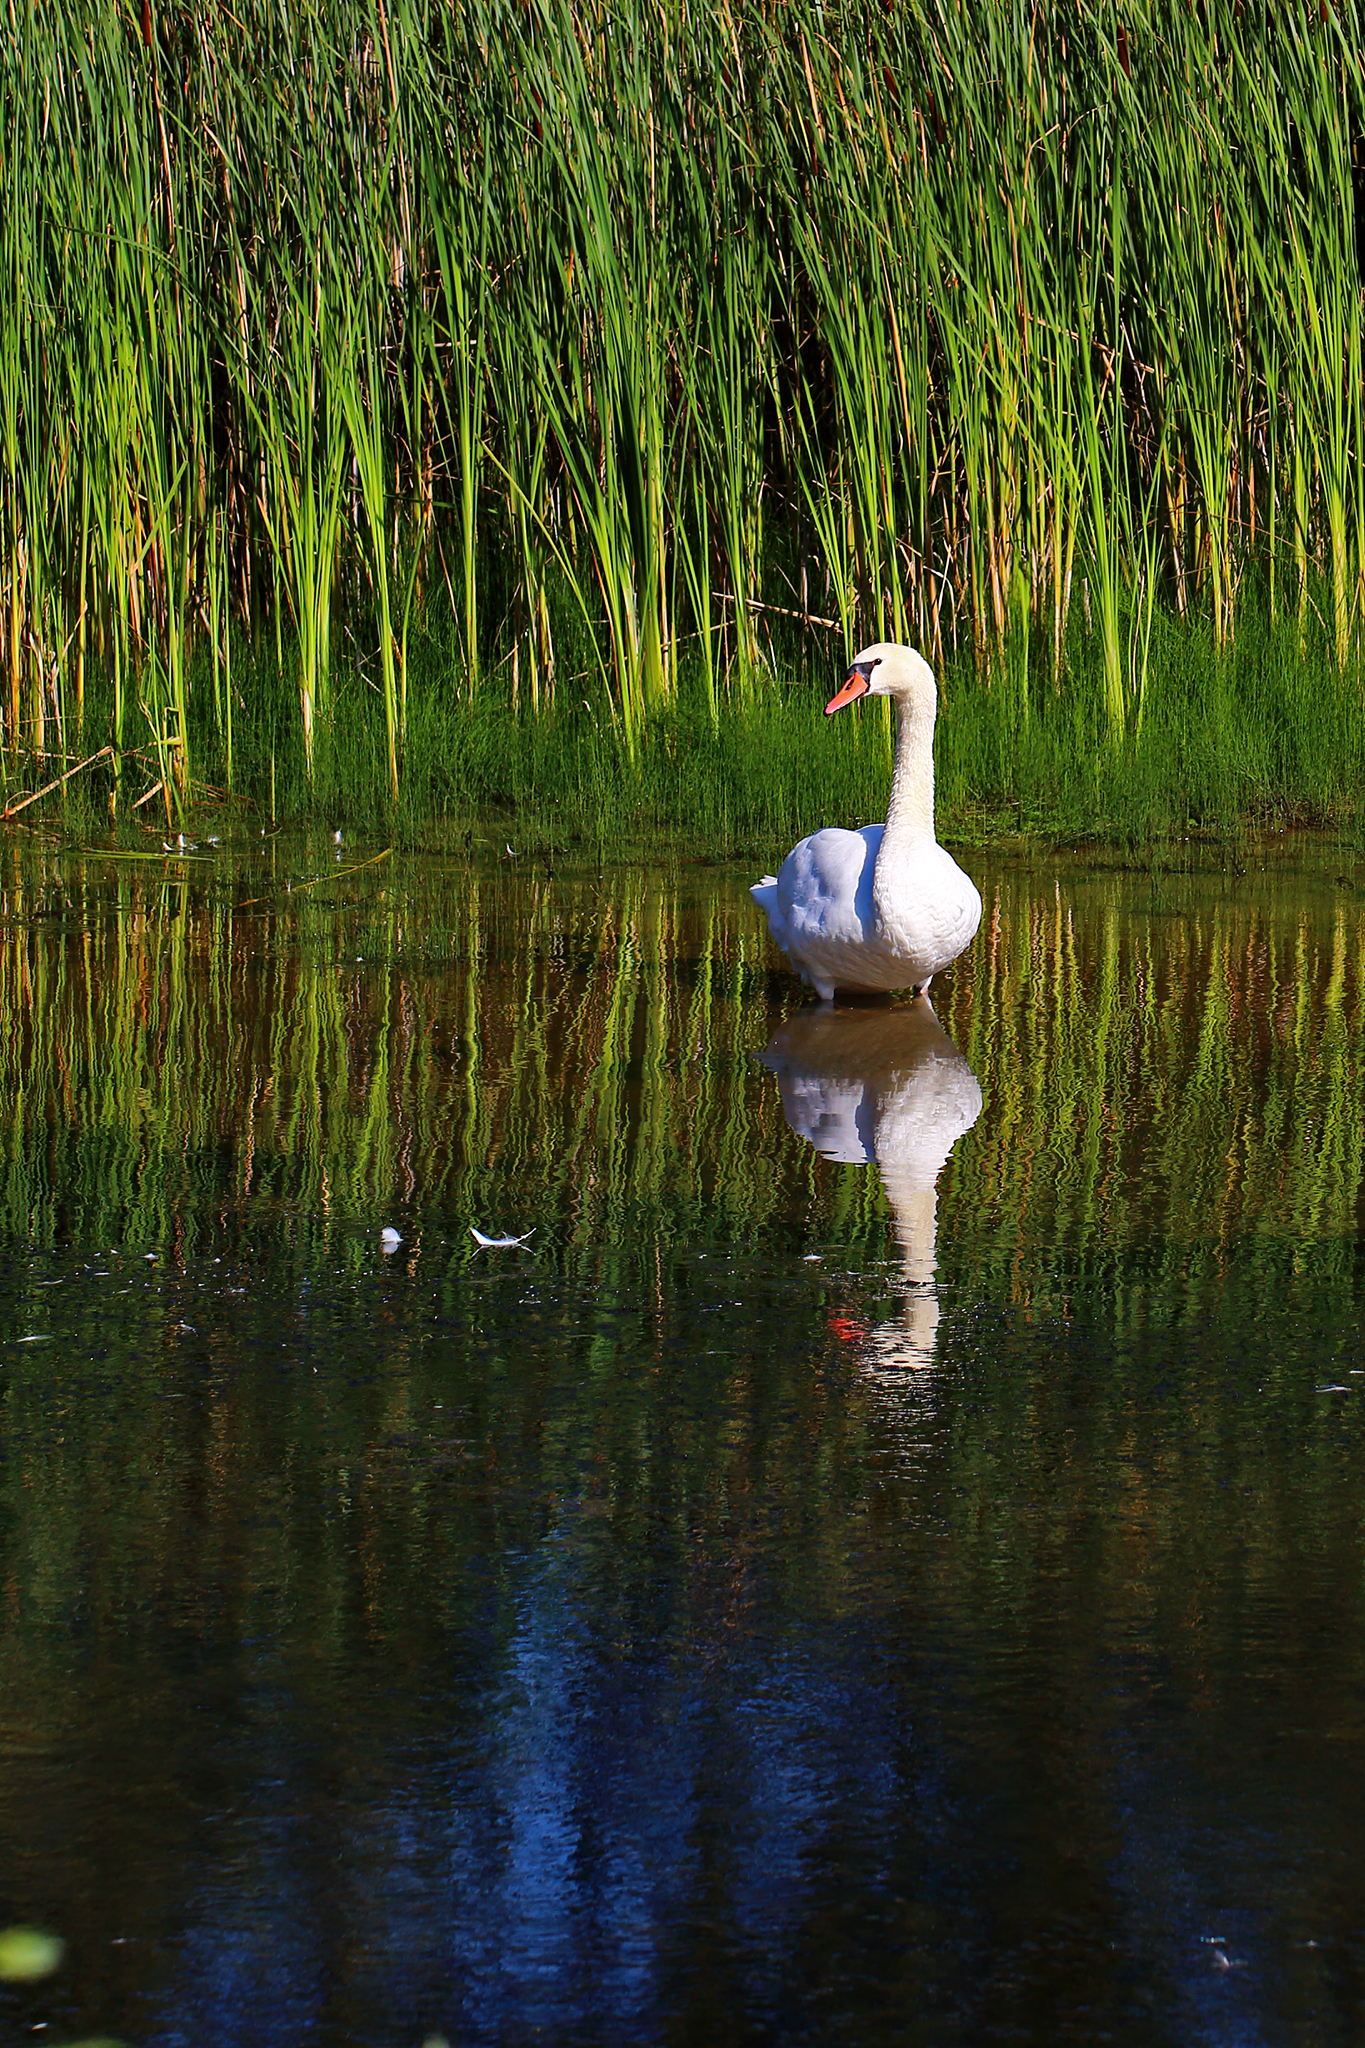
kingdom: Animalia
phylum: Chordata
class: Aves
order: Anseriformes
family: Anatidae
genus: Cygnus
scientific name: Cygnus olor
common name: Mute swan
